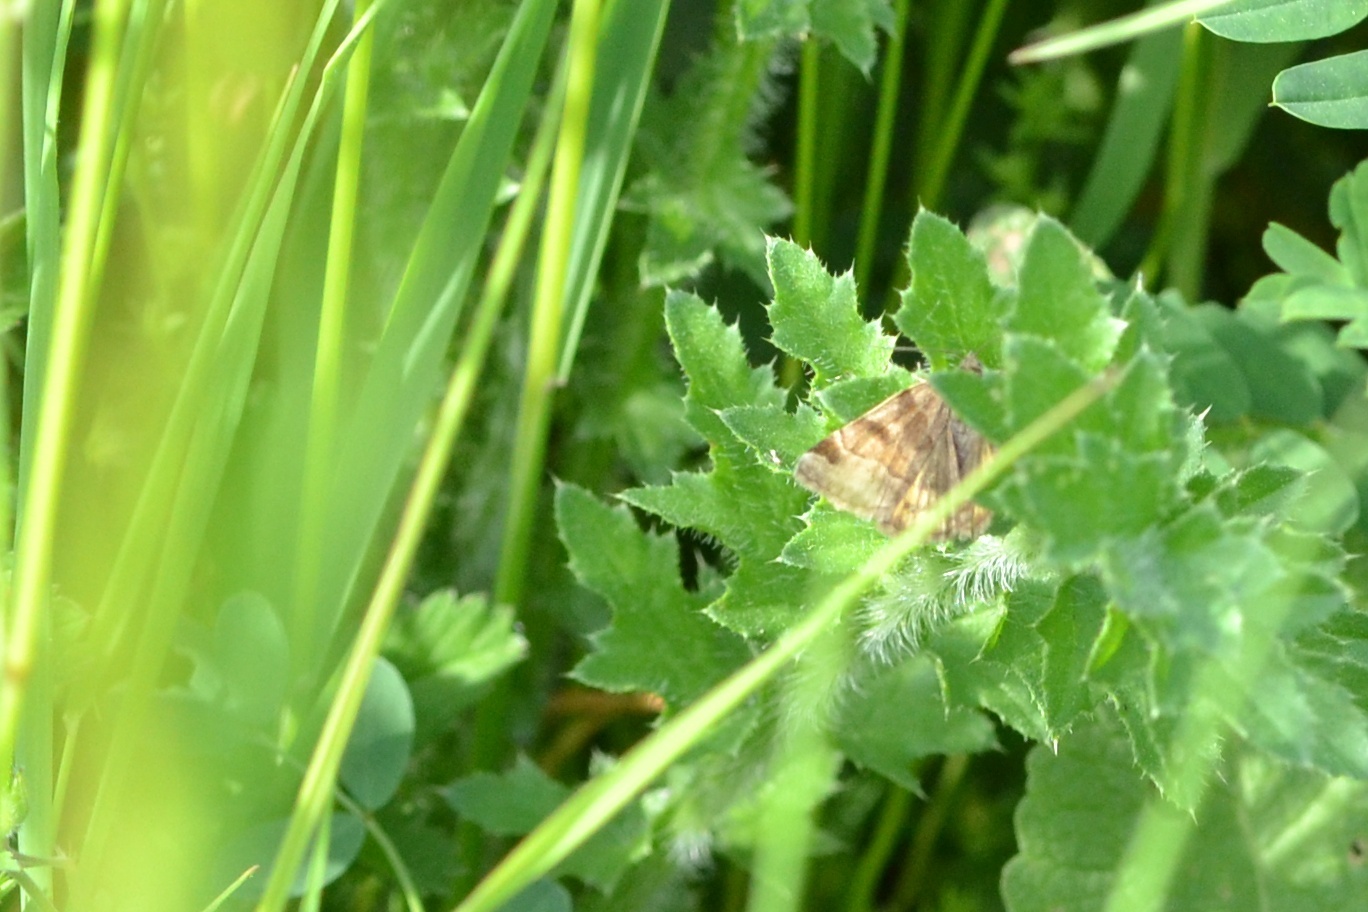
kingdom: Animalia
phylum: Arthropoda
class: Insecta
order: Lepidoptera
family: Erebidae
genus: Euclidia
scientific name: Euclidia glyphica
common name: Burnet companion
